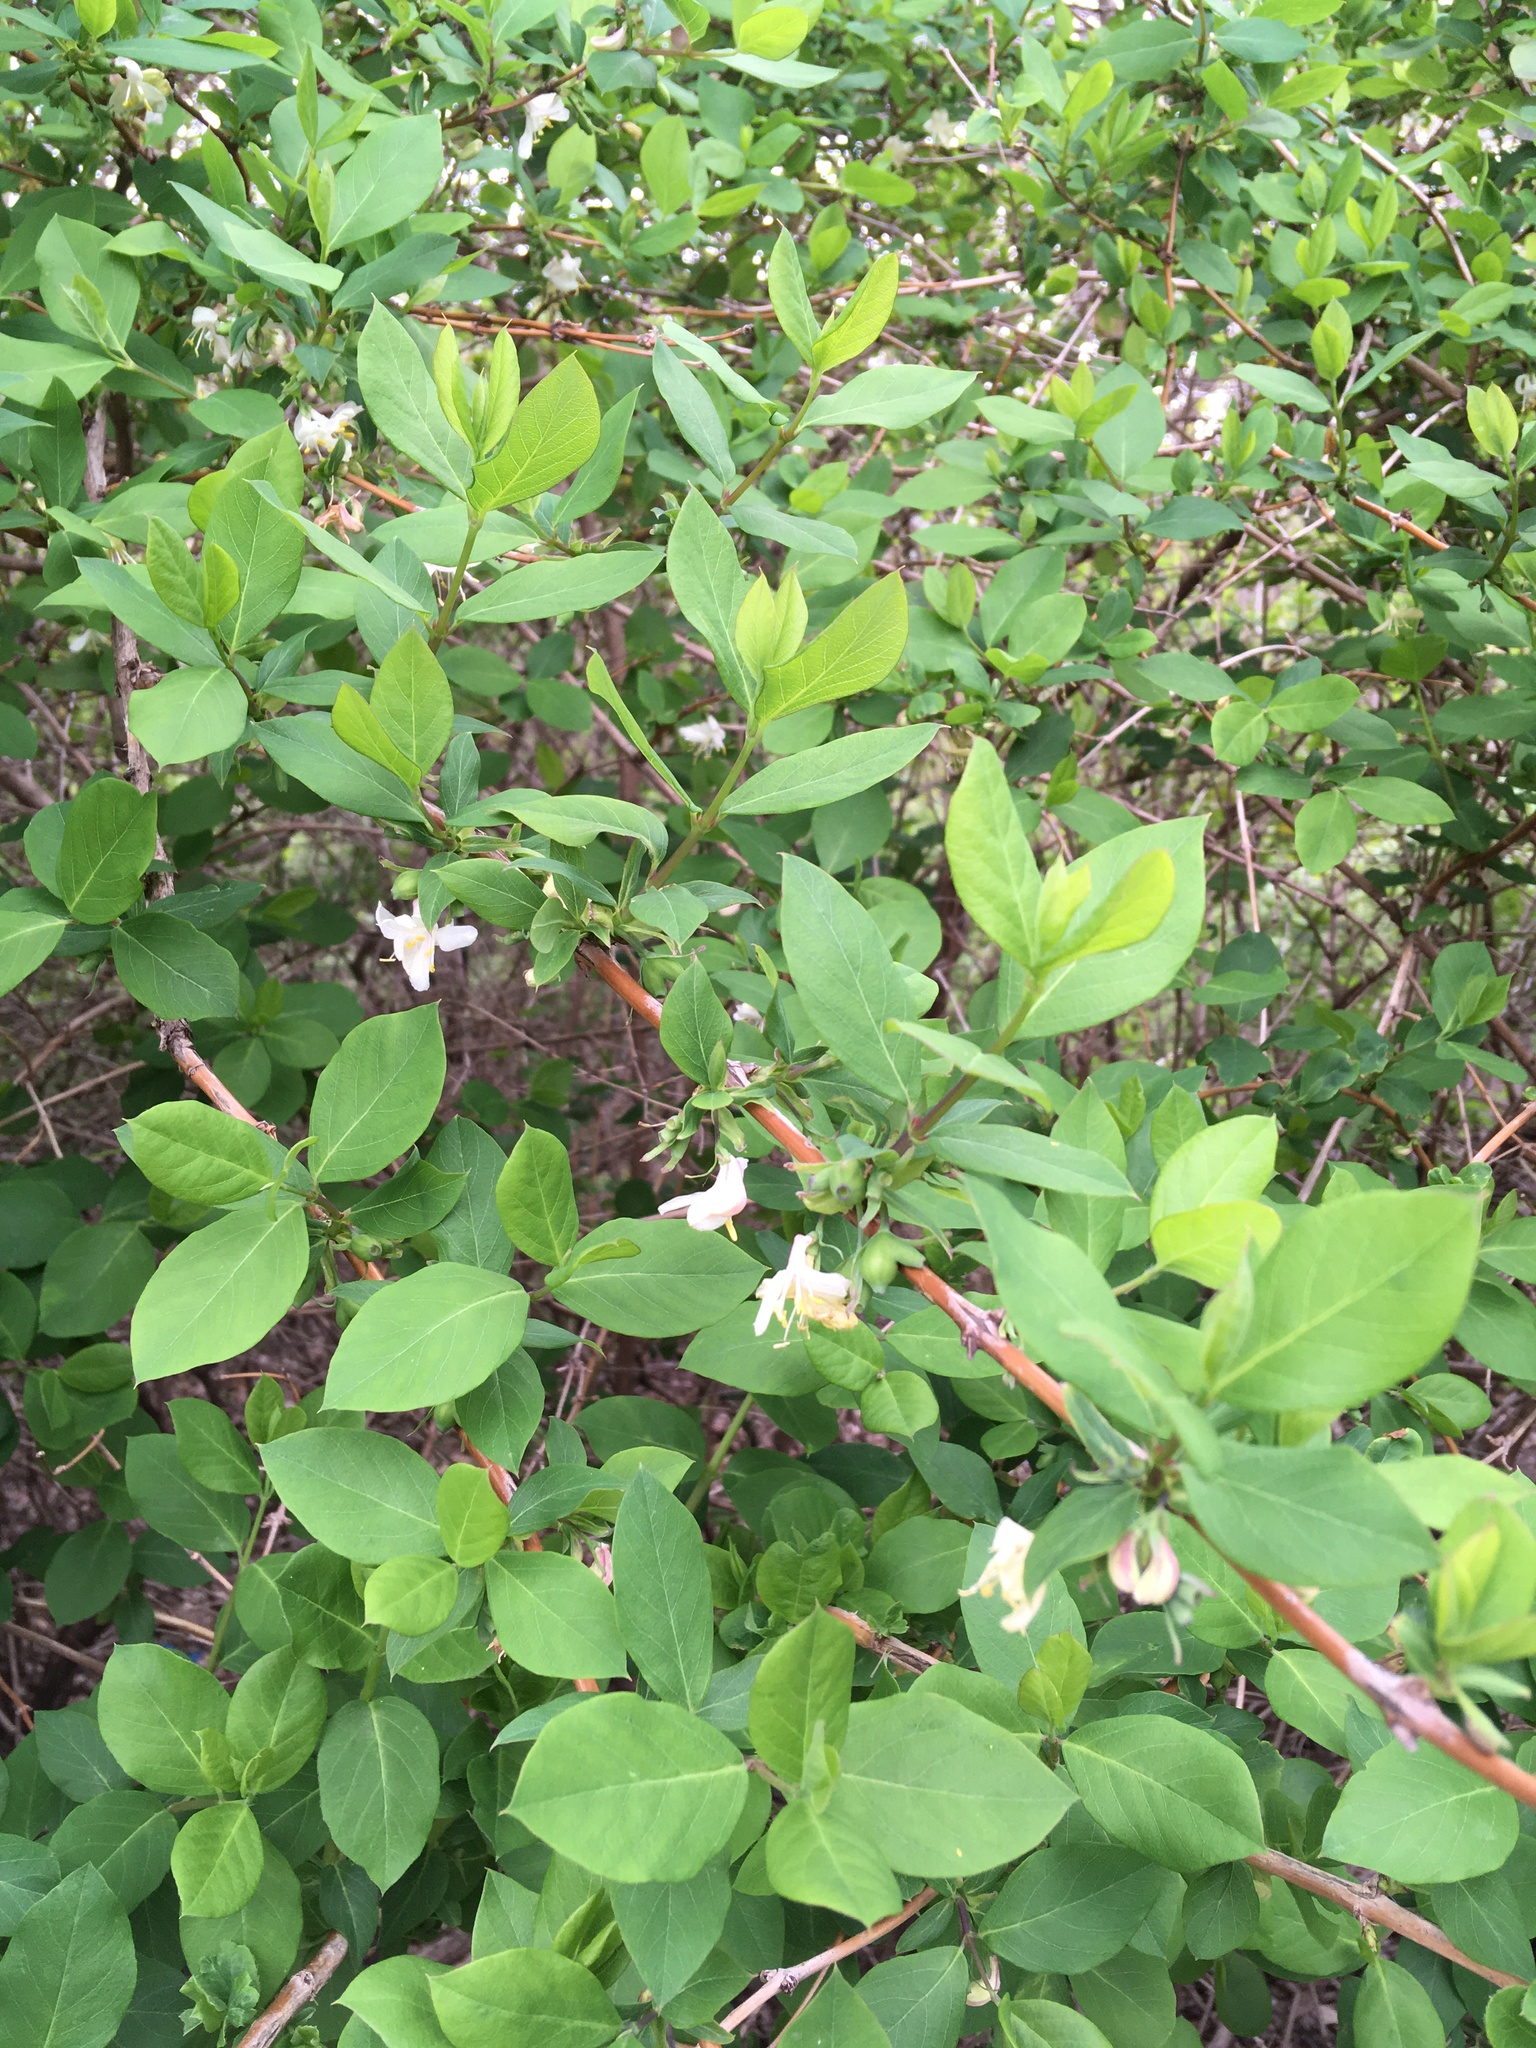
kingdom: Plantae
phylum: Tracheophyta
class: Magnoliopsida
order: Dipsacales
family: Caprifoliaceae
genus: Lonicera
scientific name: Lonicera fragrantissima
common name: Fragrant honeysuckle
